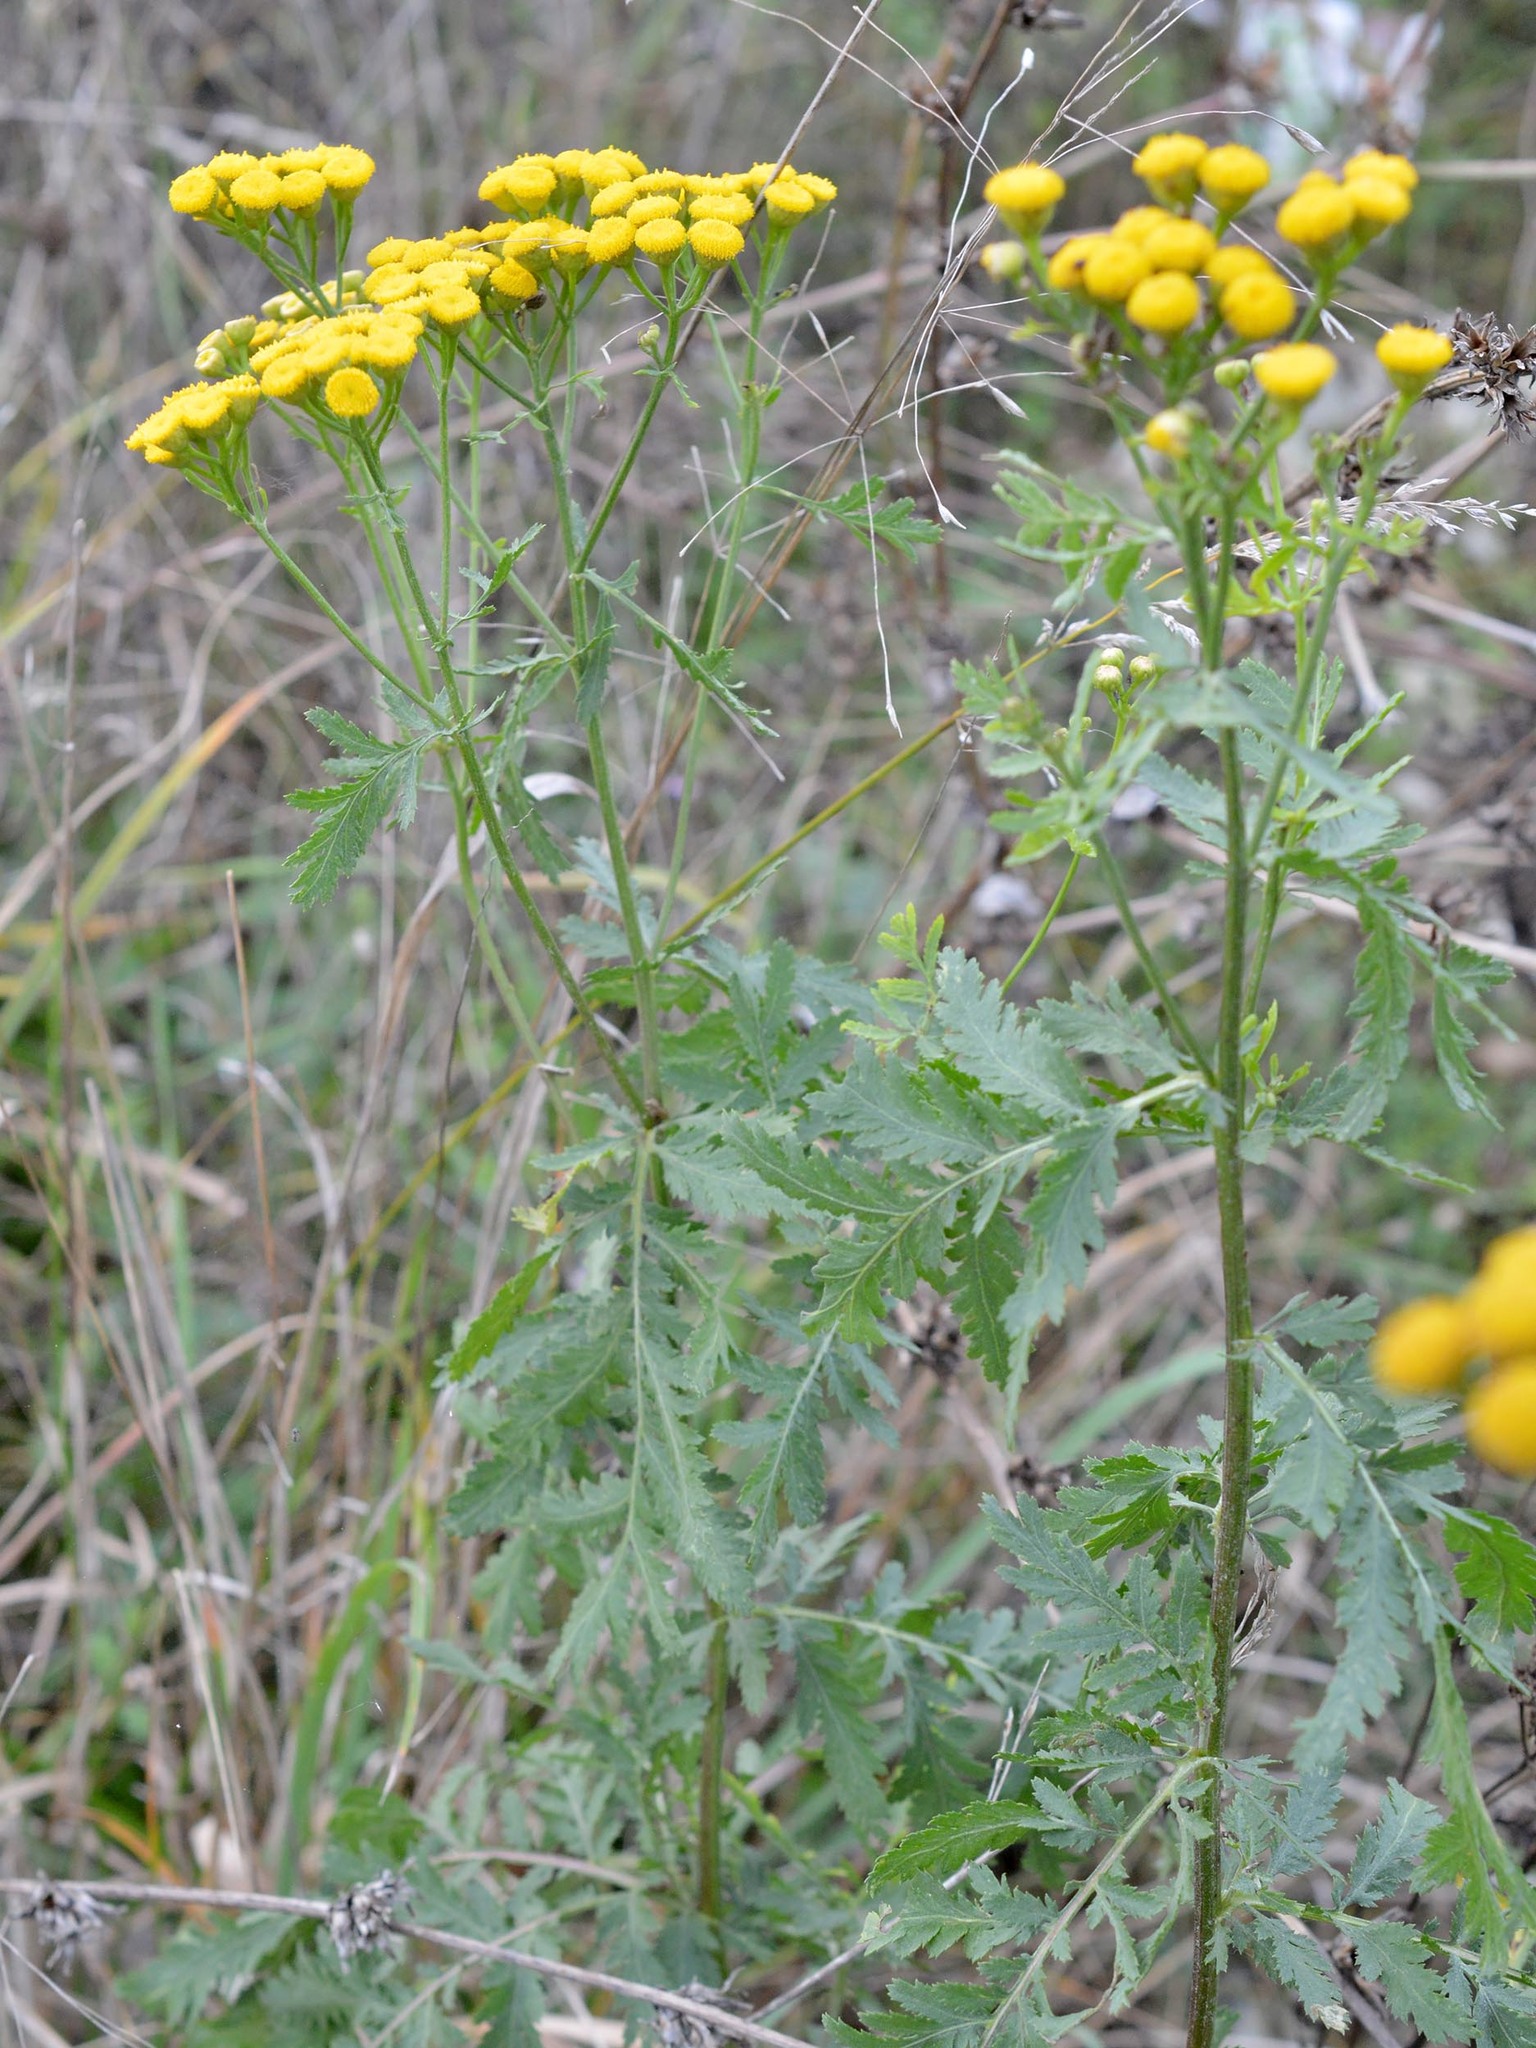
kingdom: Plantae
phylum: Tracheophyta
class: Magnoliopsida
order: Asterales
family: Asteraceae
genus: Tanacetum
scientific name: Tanacetum vulgare
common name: Common tansy
